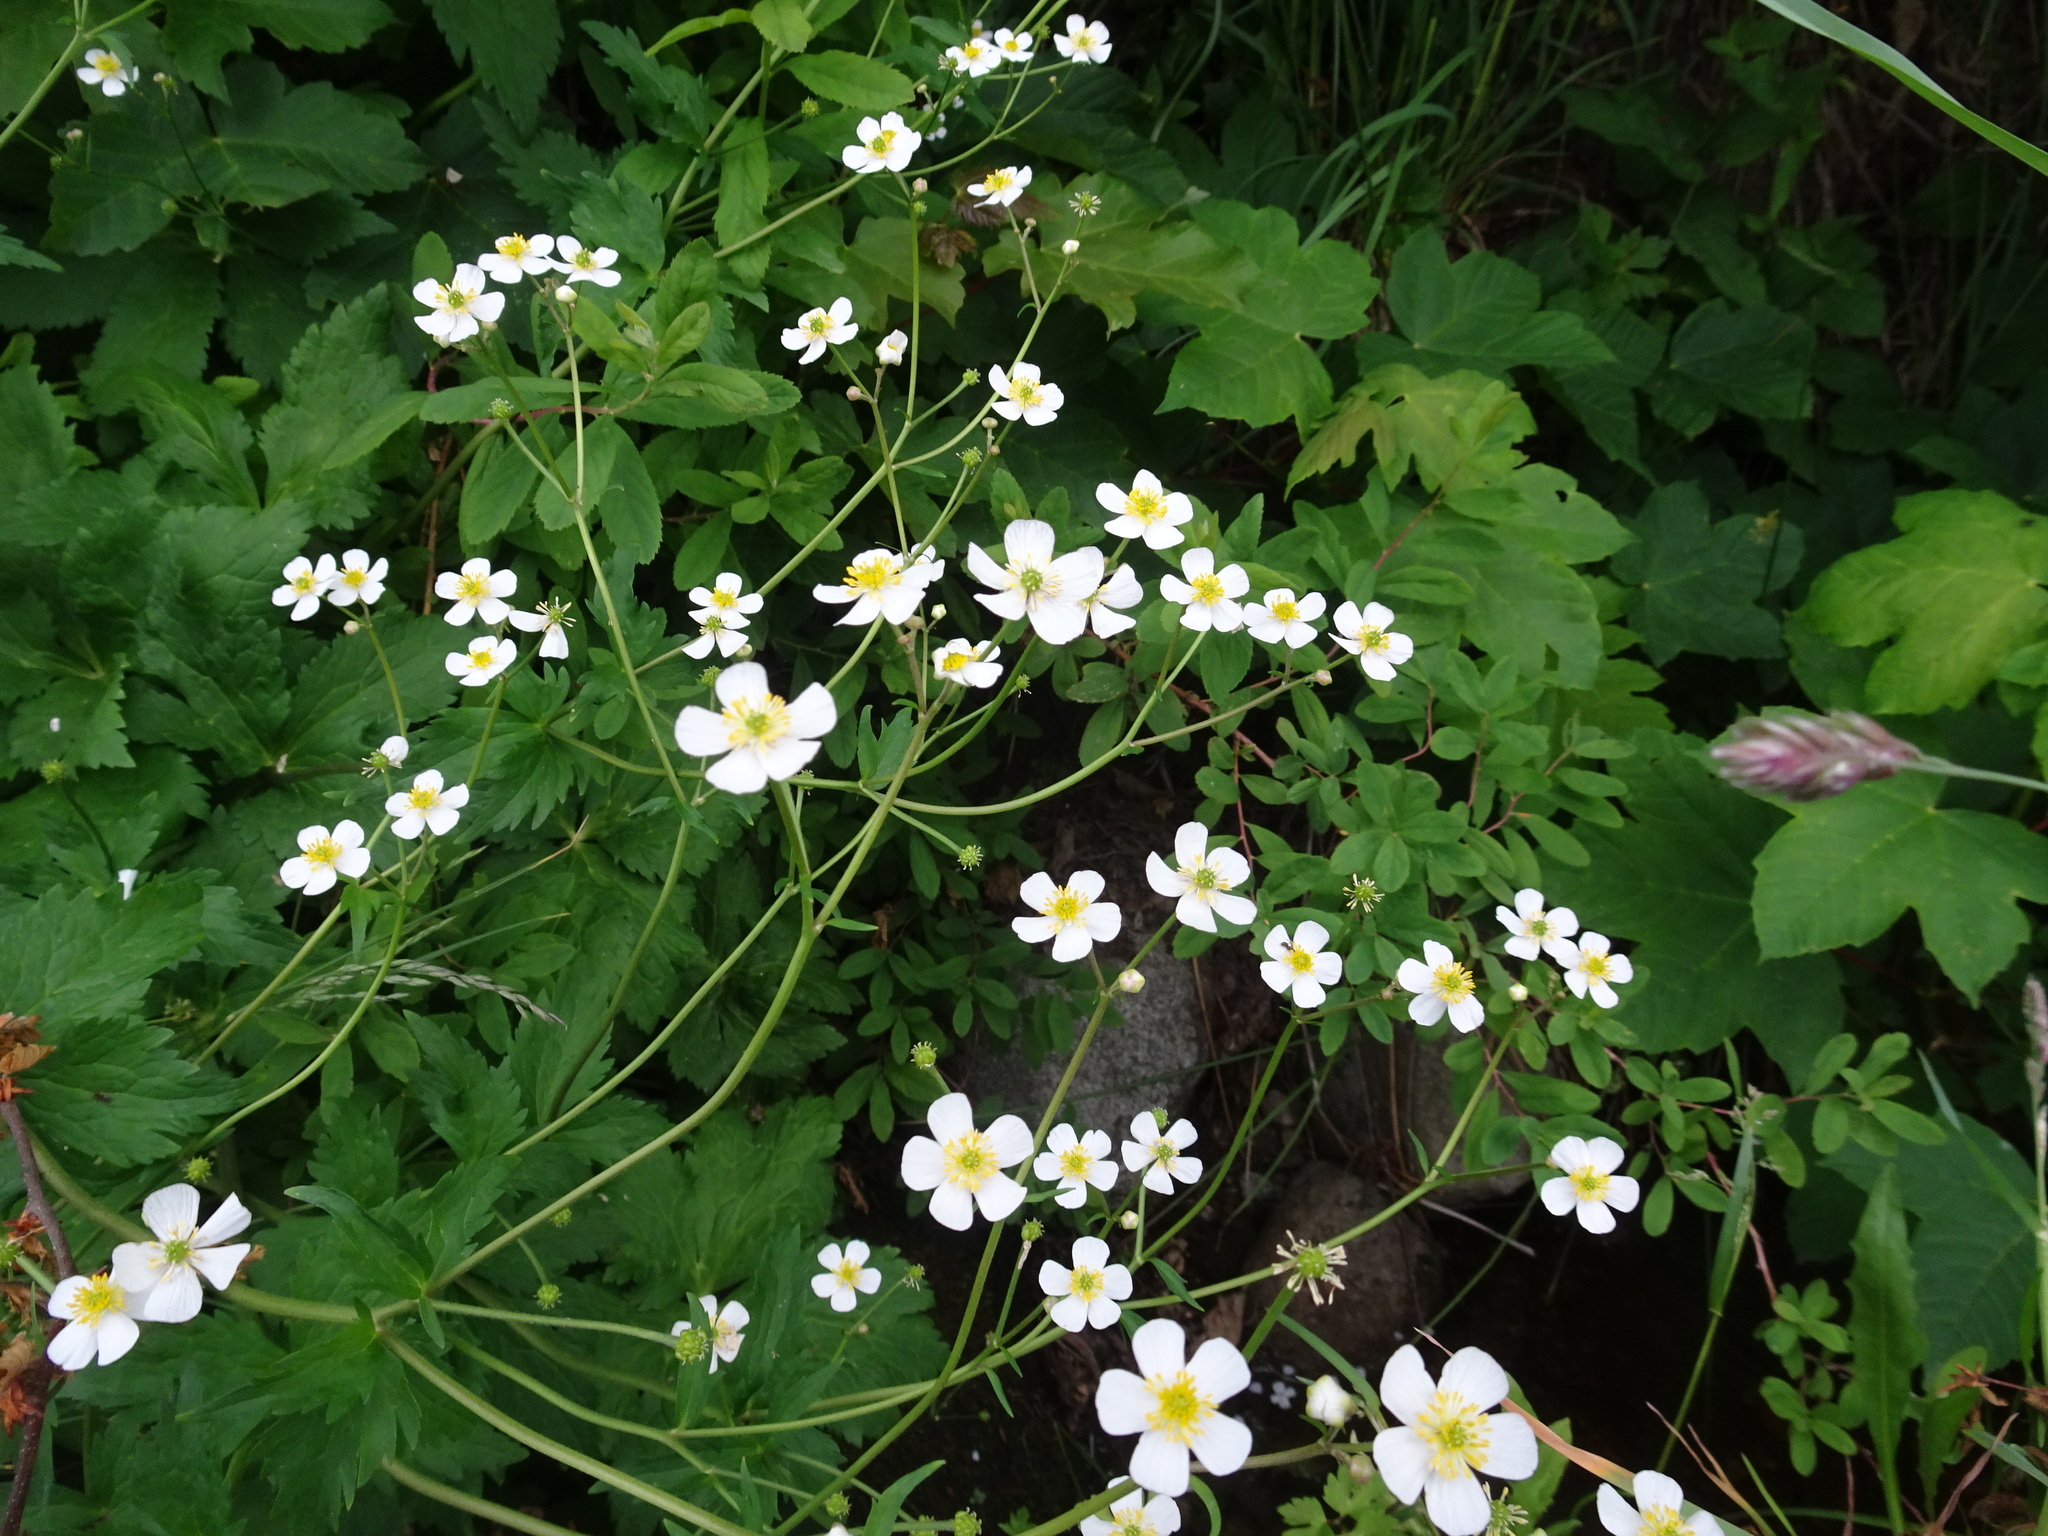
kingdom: Plantae
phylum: Tracheophyta
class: Magnoliopsida
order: Ranunculales
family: Ranunculaceae
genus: Ranunculus
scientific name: Ranunculus aconitifolius
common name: Aconite-leaved buttercup
